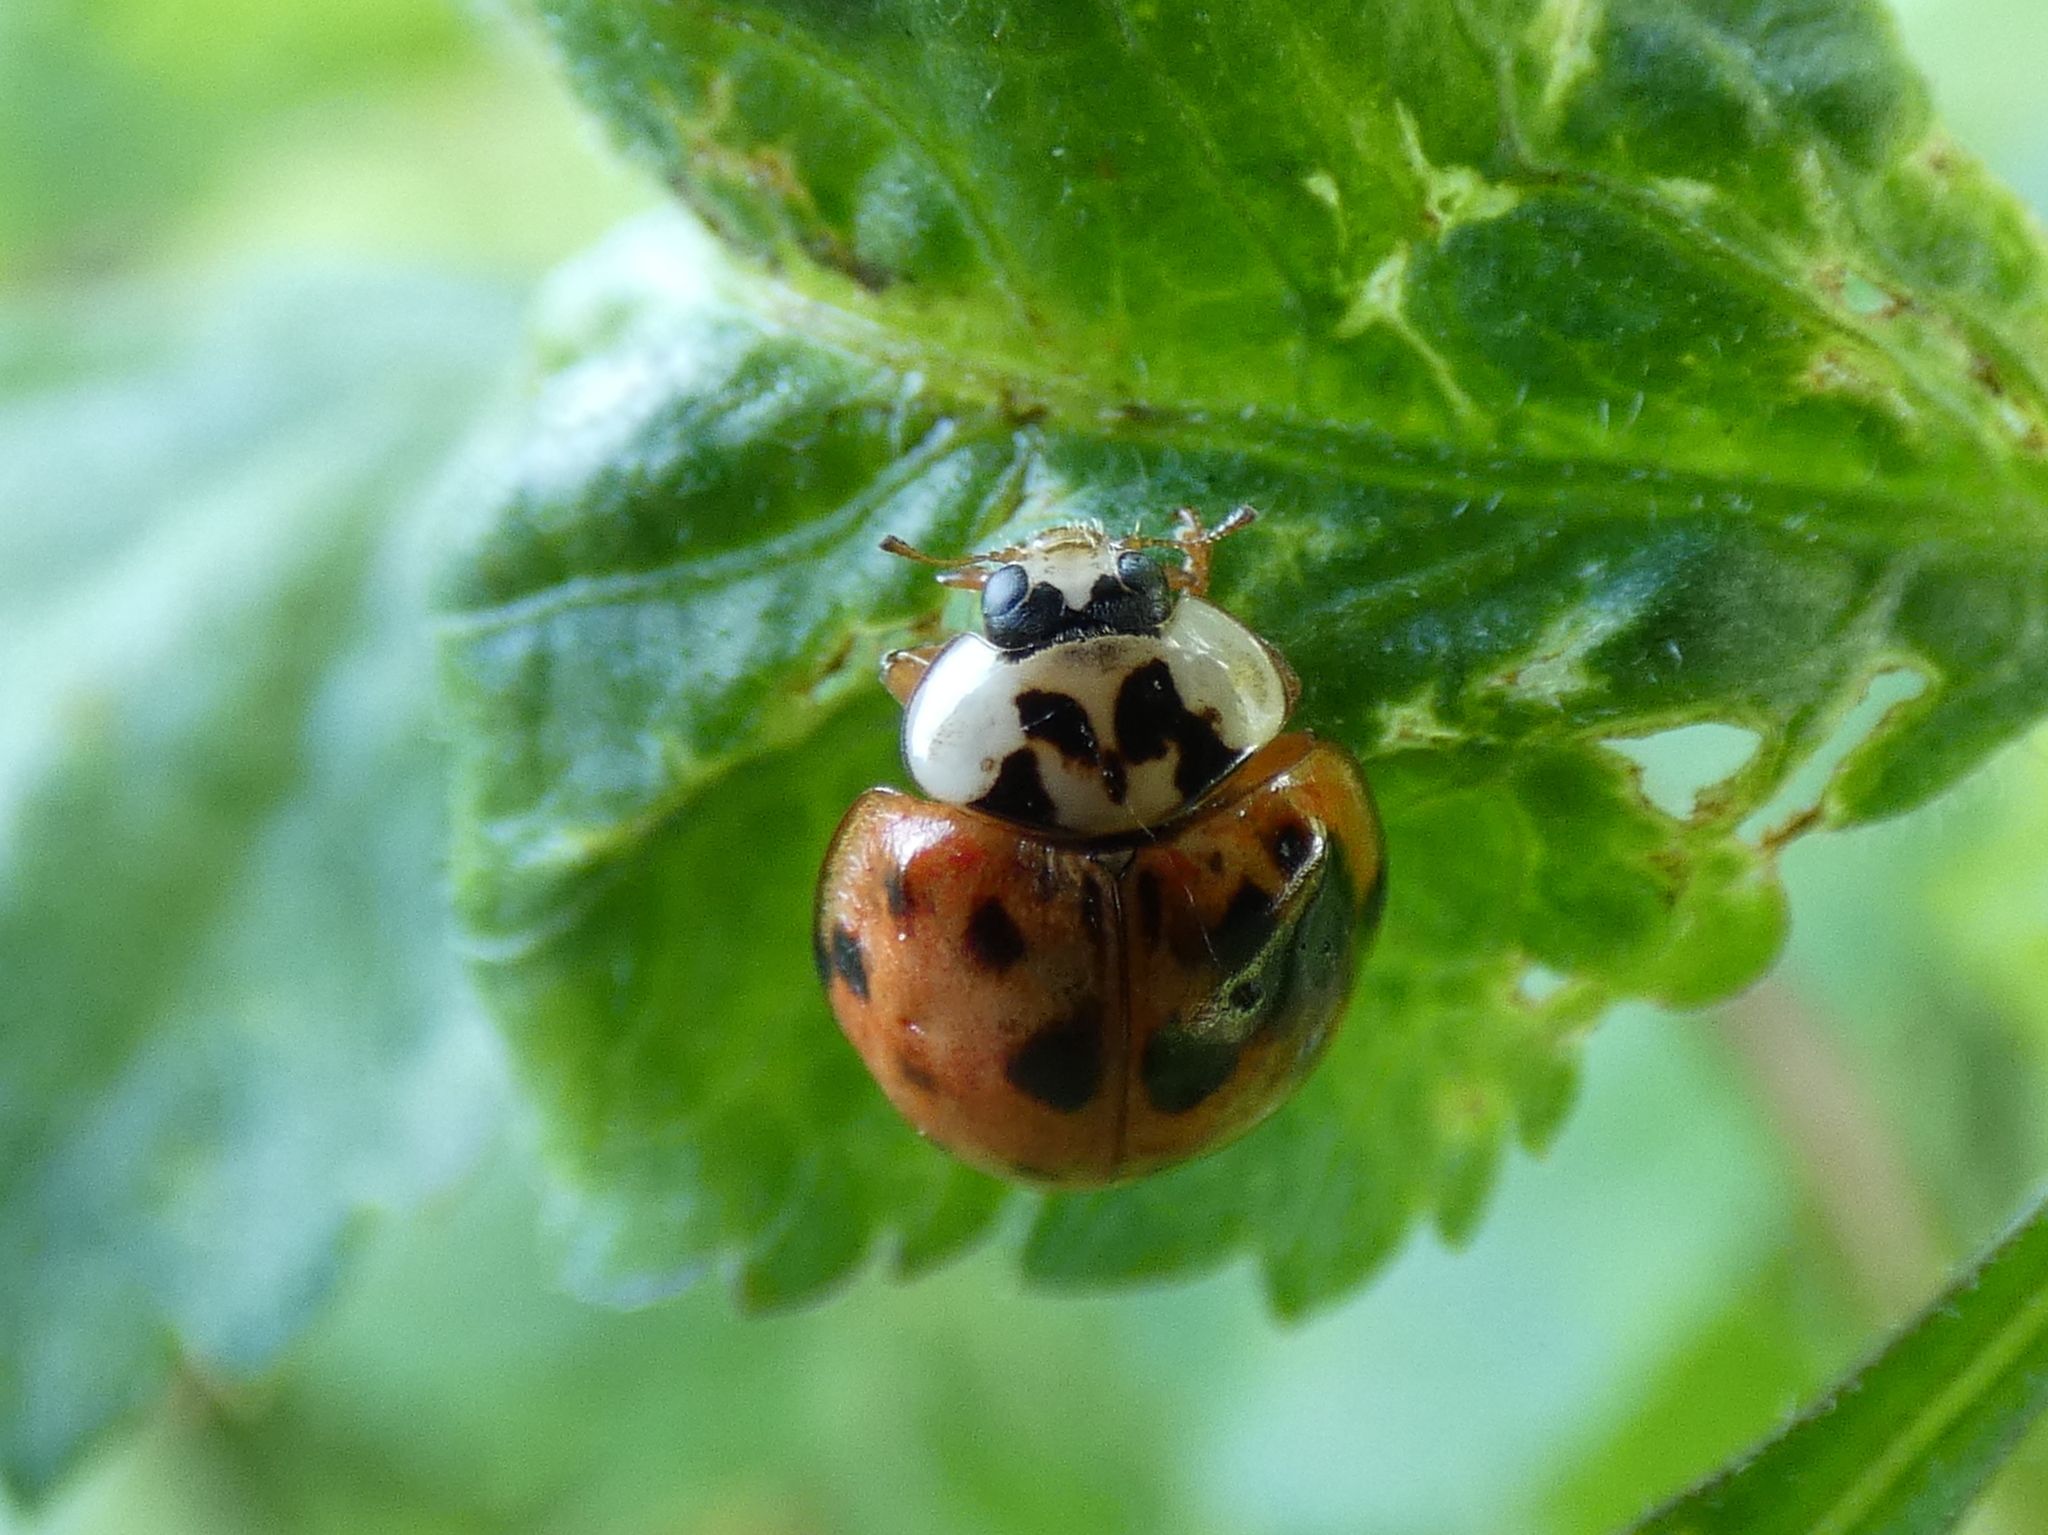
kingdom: Animalia
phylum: Arthropoda
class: Insecta
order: Coleoptera
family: Coccinellidae
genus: Harmonia
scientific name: Harmonia axyridis
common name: Harlequin ladybird
